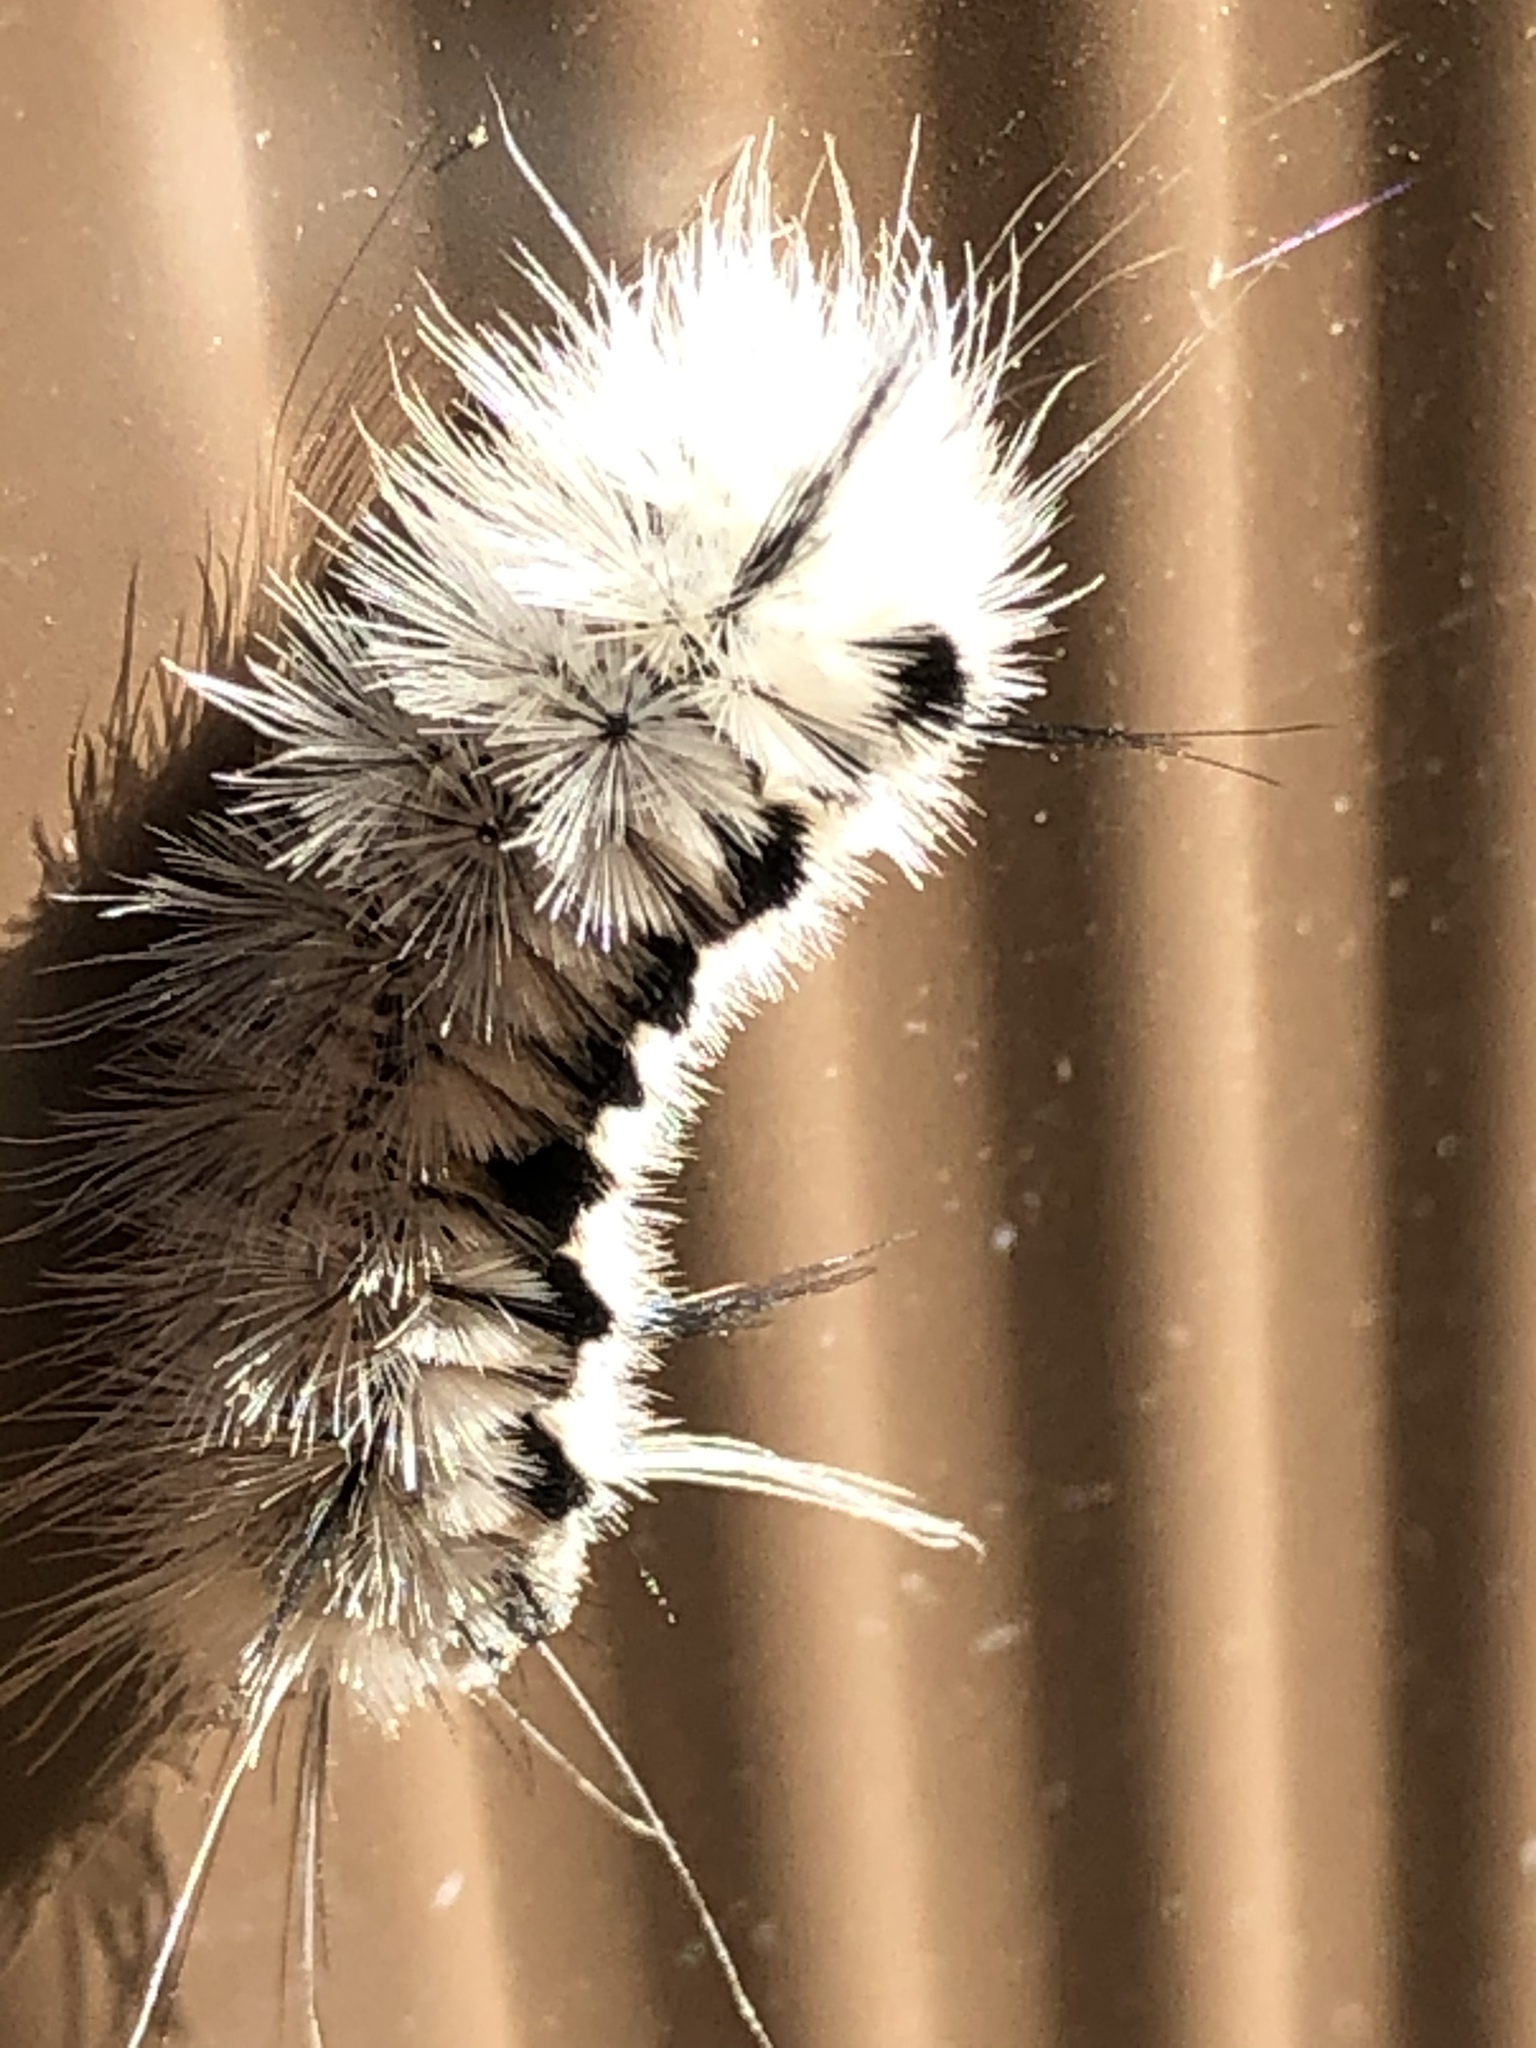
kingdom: Animalia
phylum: Arthropoda
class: Insecta
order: Lepidoptera
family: Erebidae
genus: Lophocampa
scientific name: Lophocampa caryae
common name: Hickory tussock moth
